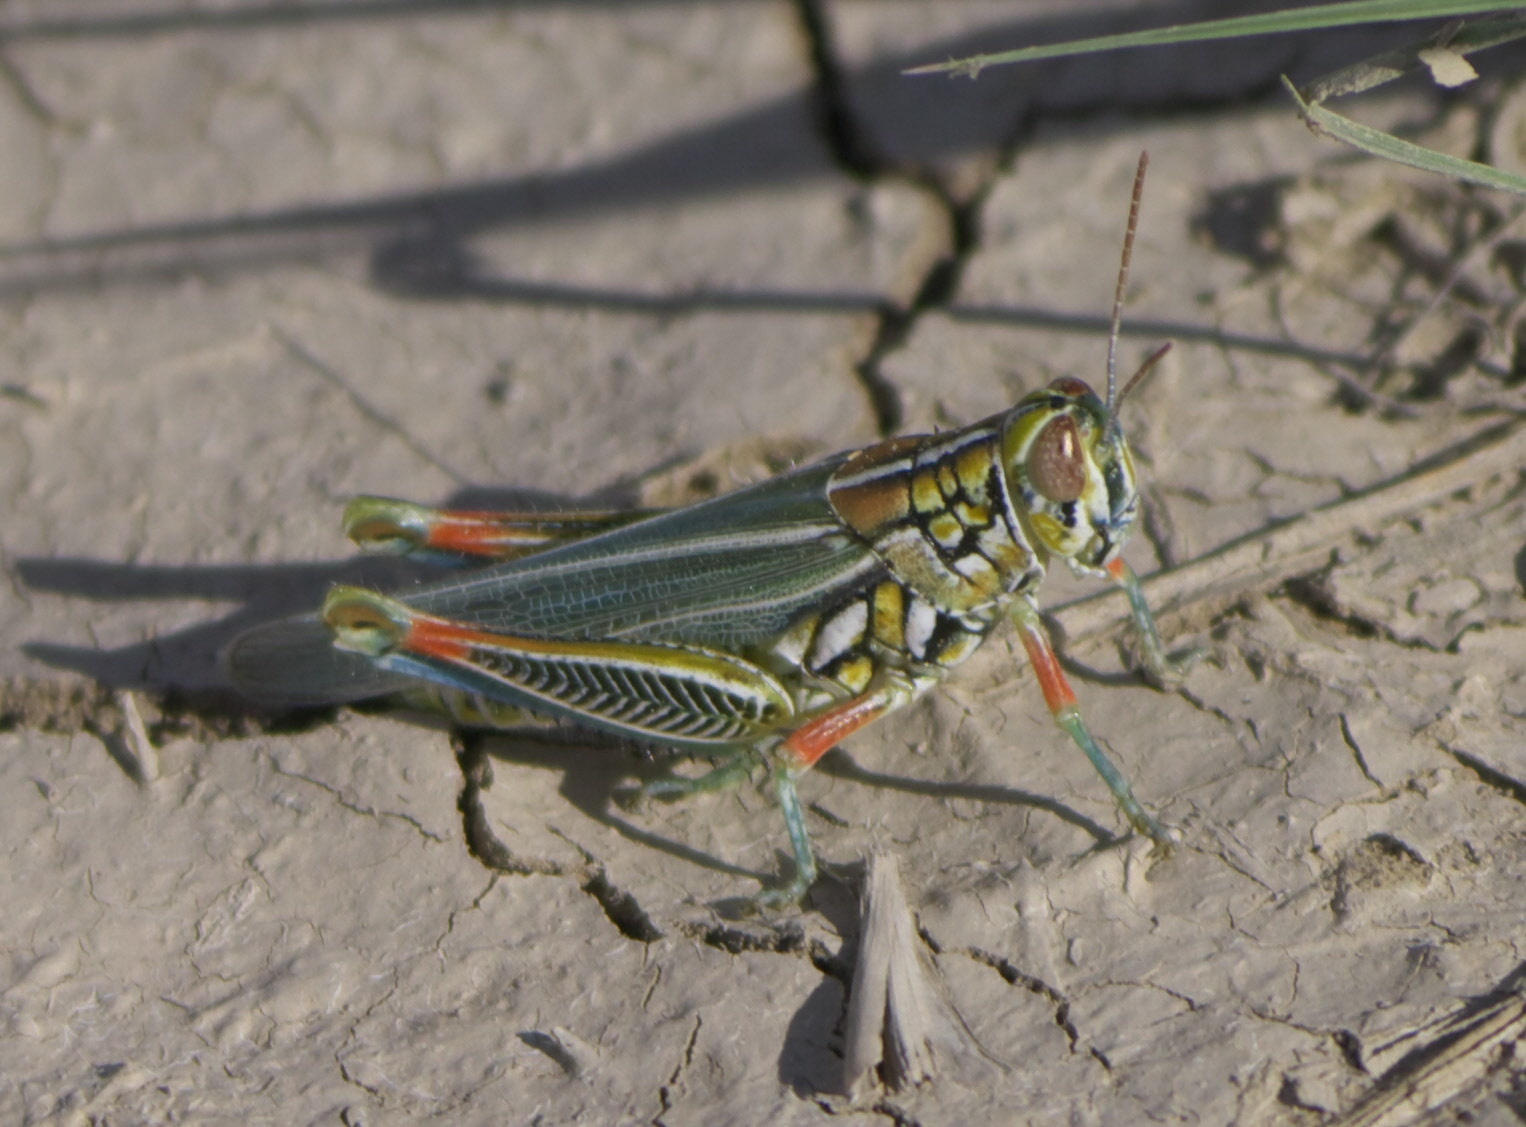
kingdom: Animalia
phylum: Arthropoda
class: Insecta
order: Orthoptera
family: Acrididae
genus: Hesperotettix
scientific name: Hesperotettix viridis
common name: Meadow purple-striped grasshopper
